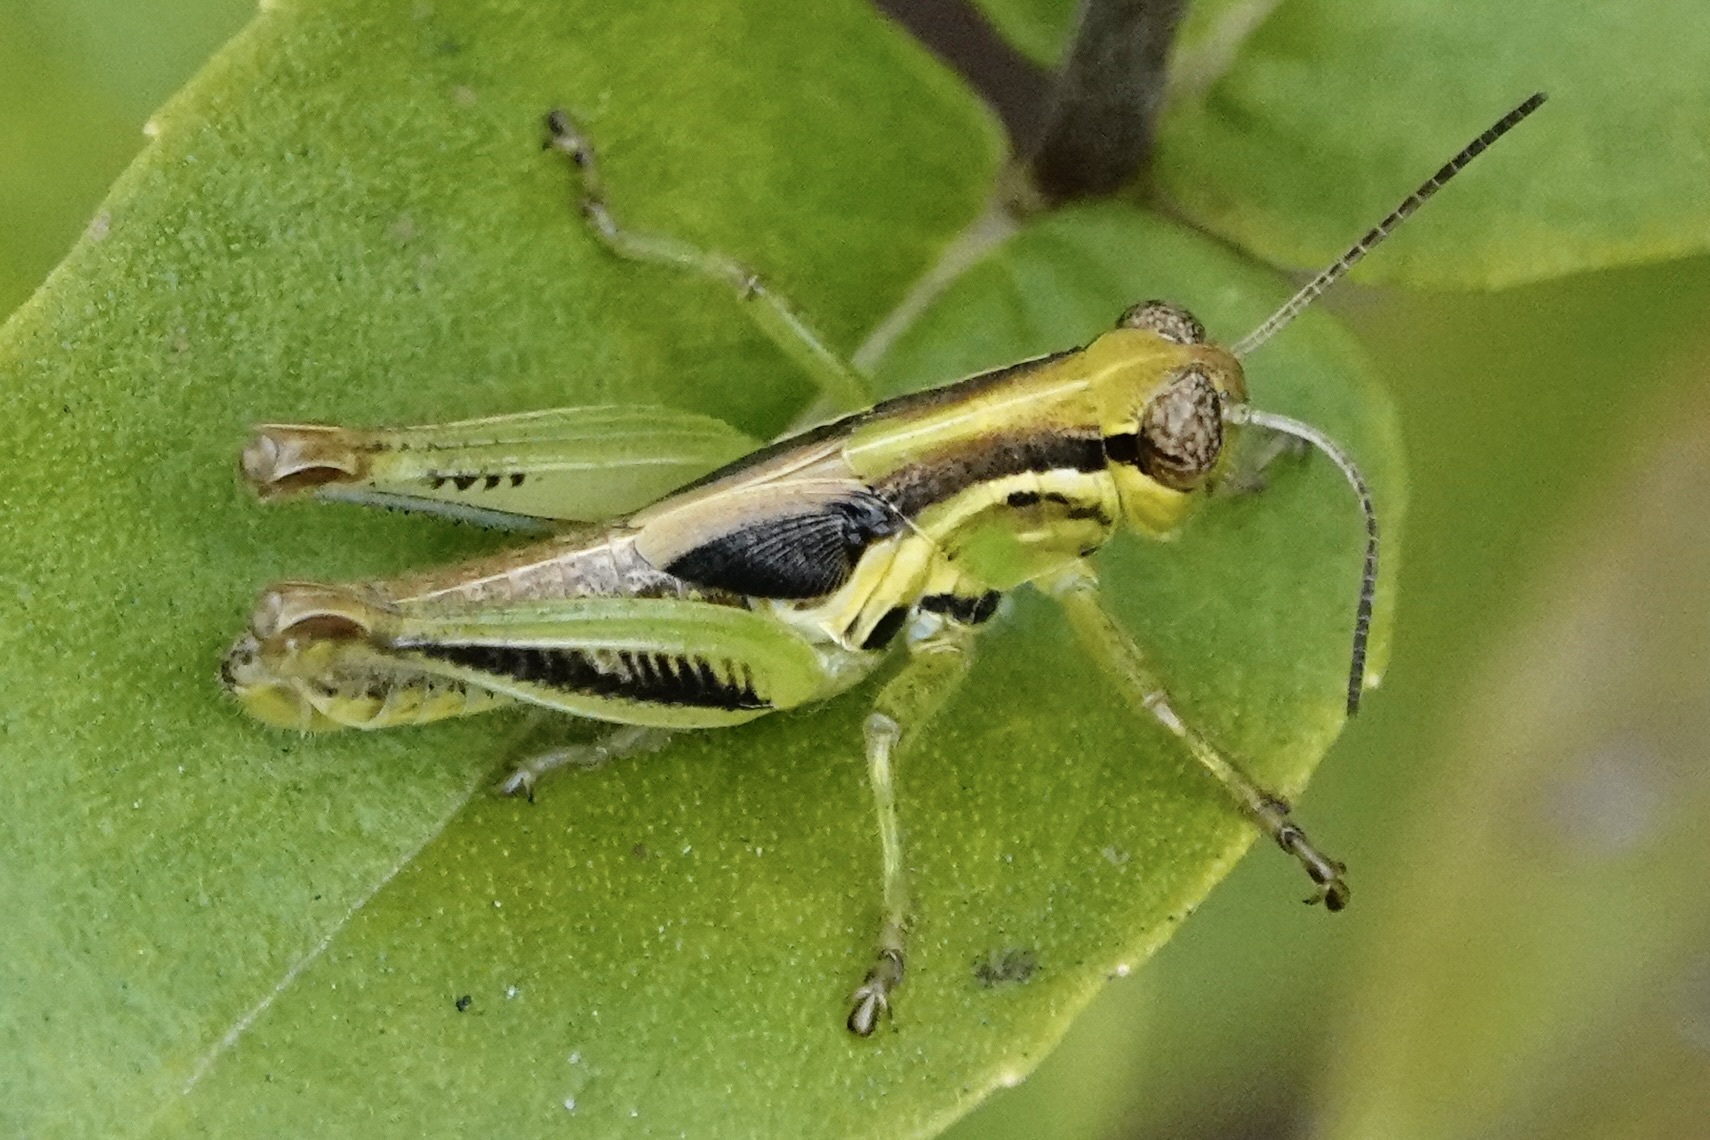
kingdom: Animalia
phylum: Arthropoda
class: Insecta
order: Orthoptera
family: Acrididae
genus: Melanoplus
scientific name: Melanoplus femurrubrum
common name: Red-legged grasshopper
